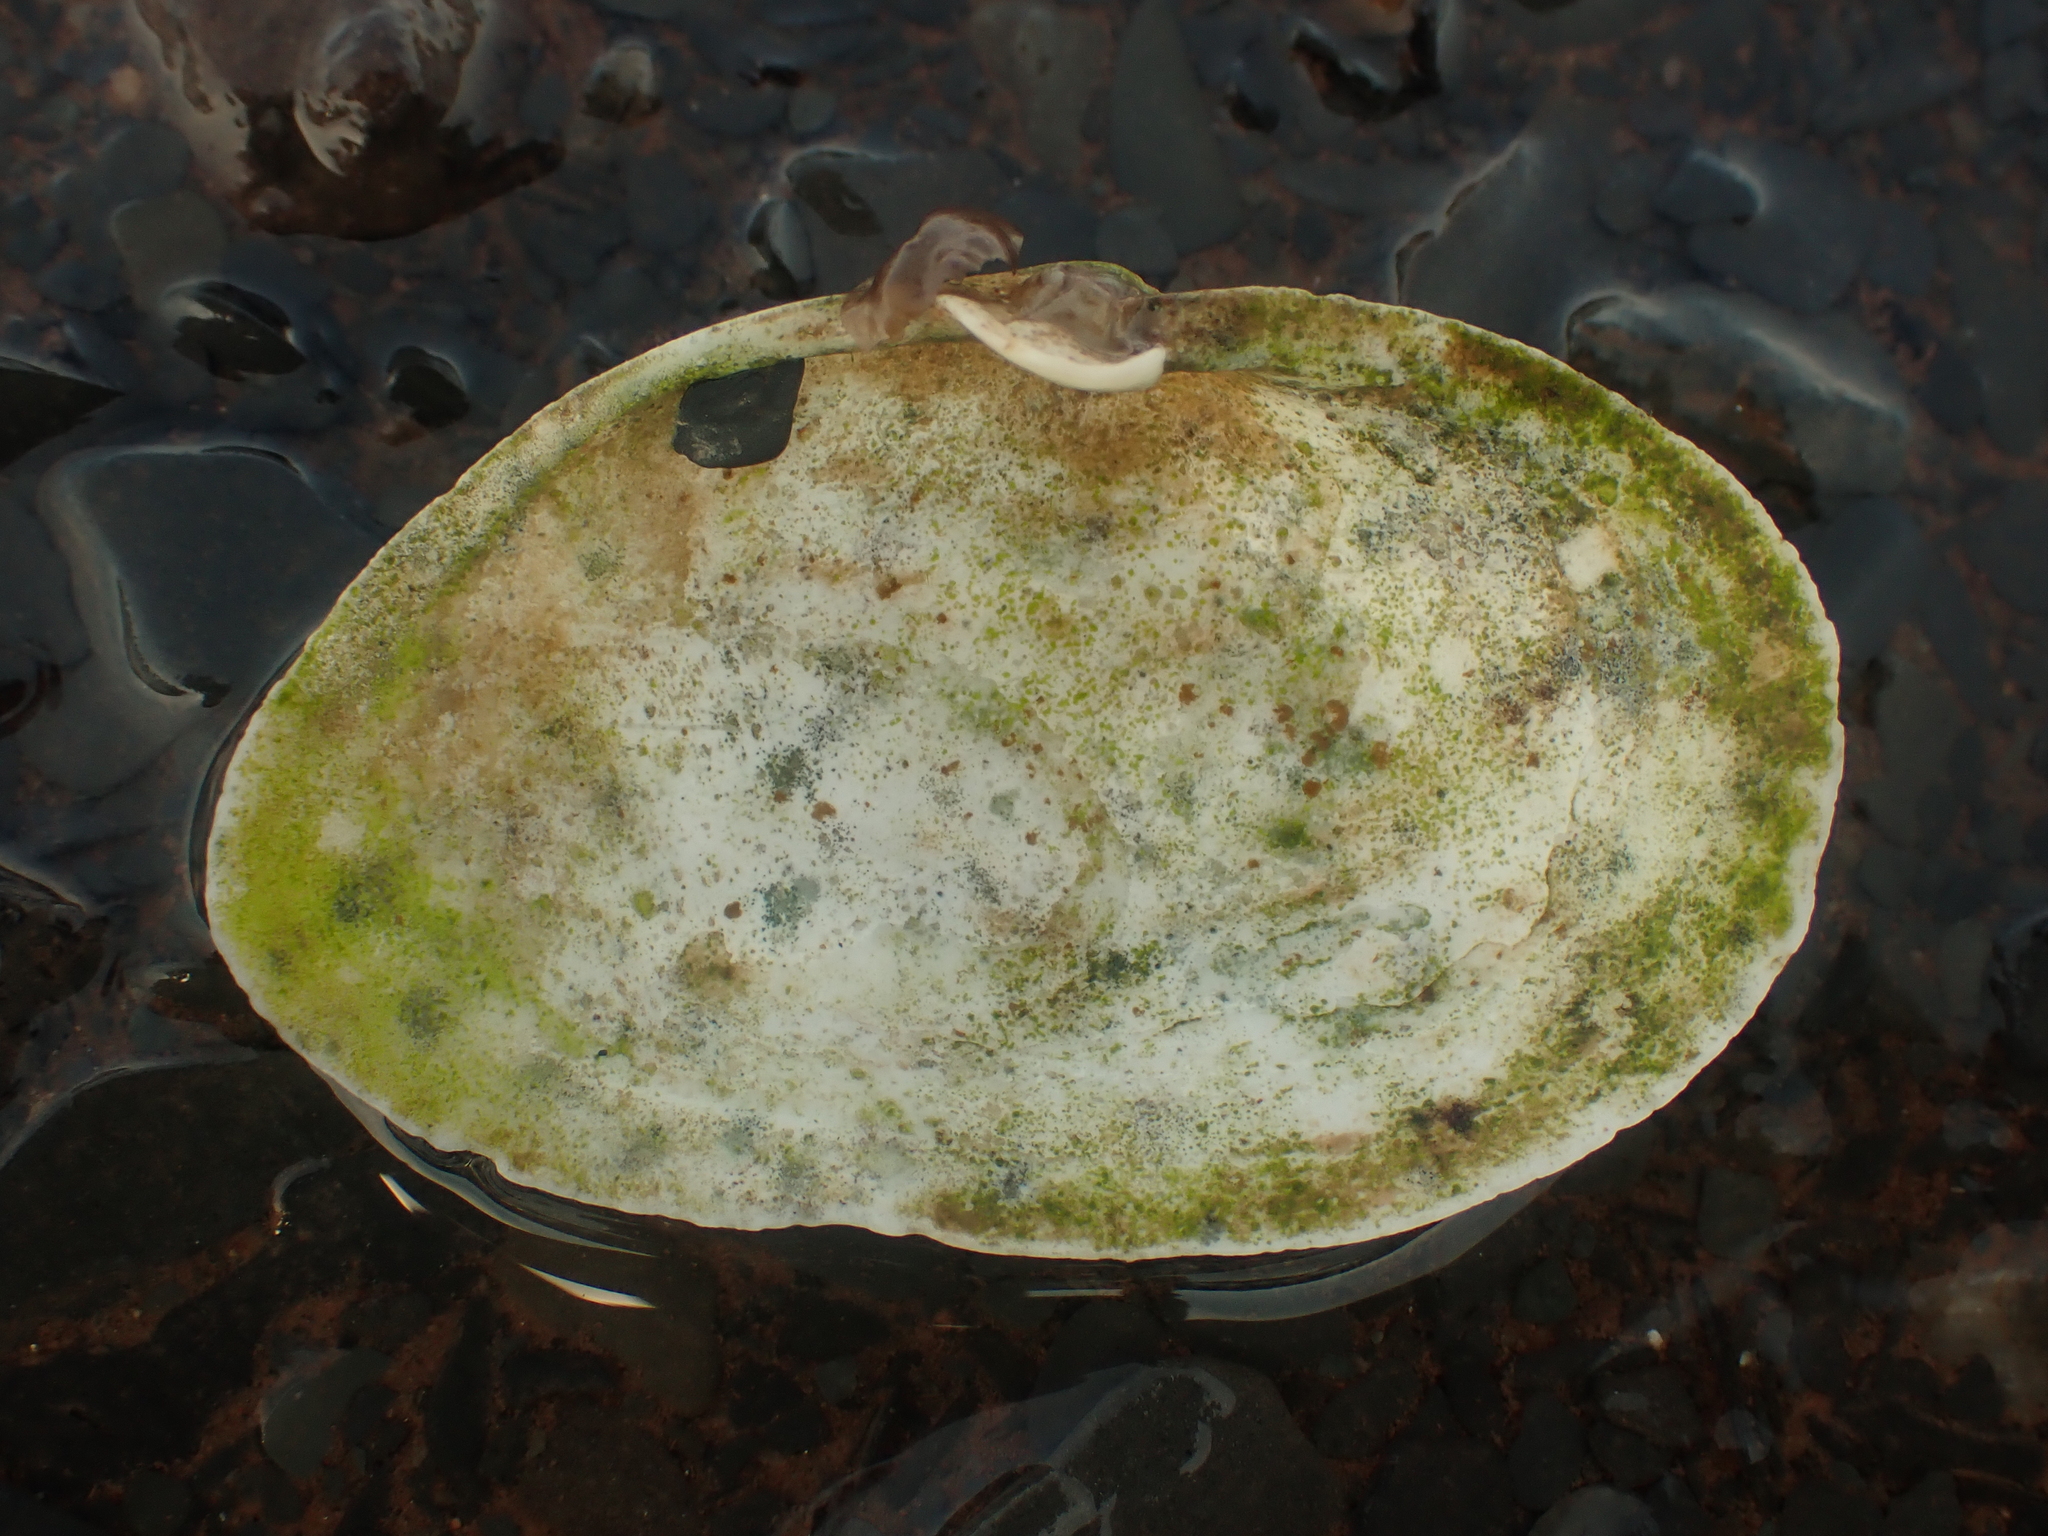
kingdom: Animalia
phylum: Mollusca
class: Bivalvia
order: Myida
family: Myidae
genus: Mya
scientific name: Mya arenaria
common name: Soft-shelled clam
